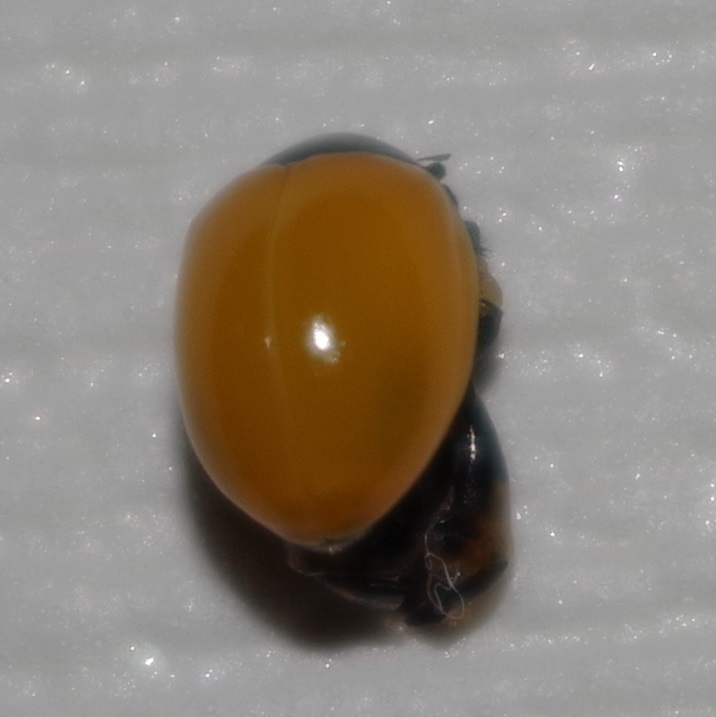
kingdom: Animalia
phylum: Arthropoda
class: Insecta
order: Coleoptera
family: Coccinellidae
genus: Coccinella
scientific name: Coccinella septempunctata
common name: Sevenspotted lady beetle
